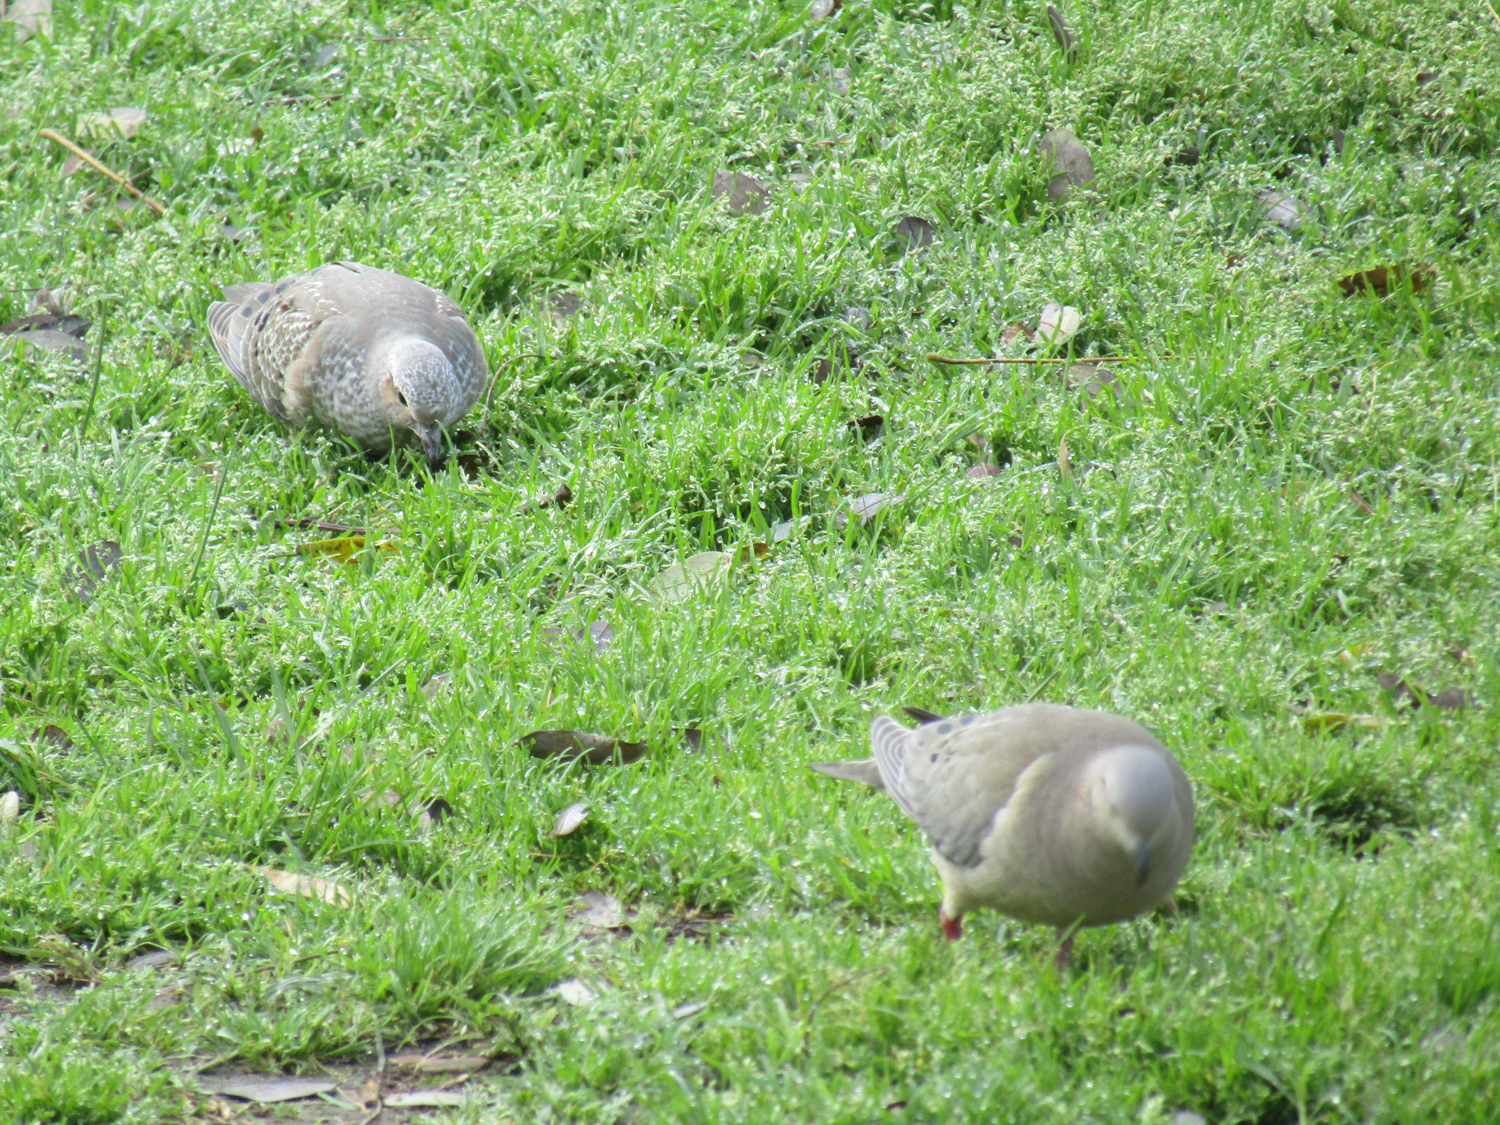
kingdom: Animalia
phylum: Chordata
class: Aves
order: Columbiformes
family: Columbidae
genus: Zenaida
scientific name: Zenaida auriculata
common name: Eared dove
